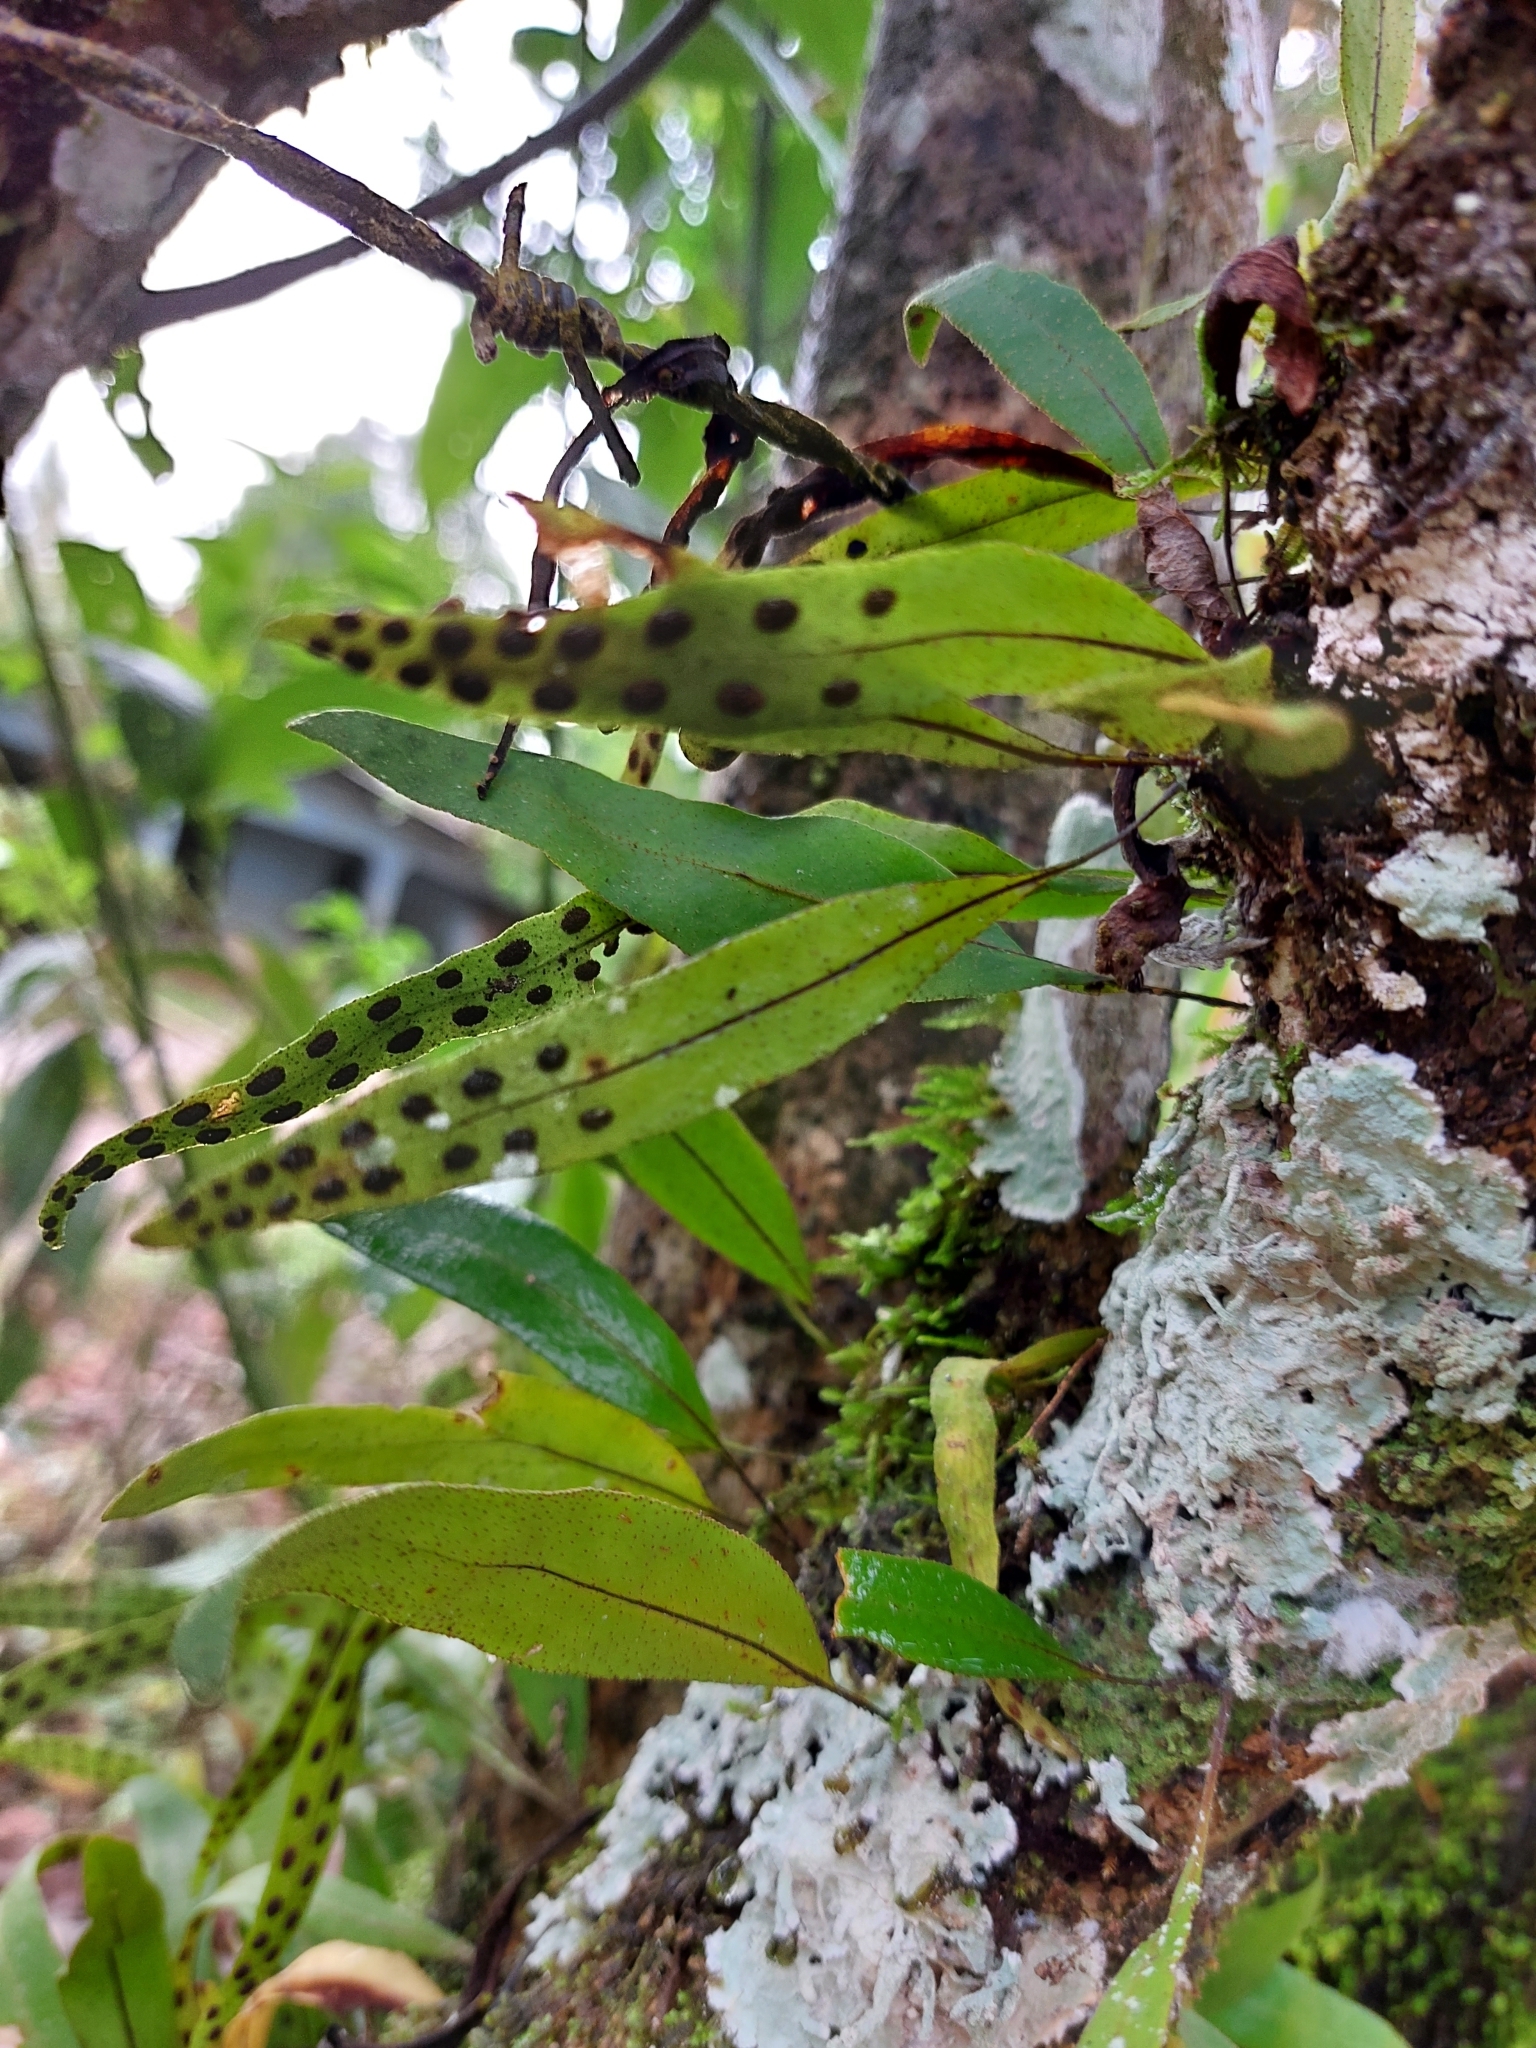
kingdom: Plantae
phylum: Tracheophyta
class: Polypodiopsida
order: Polypodiales
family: Polypodiaceae
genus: Pleopeltis
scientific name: Pleopeltis macrocarpa
